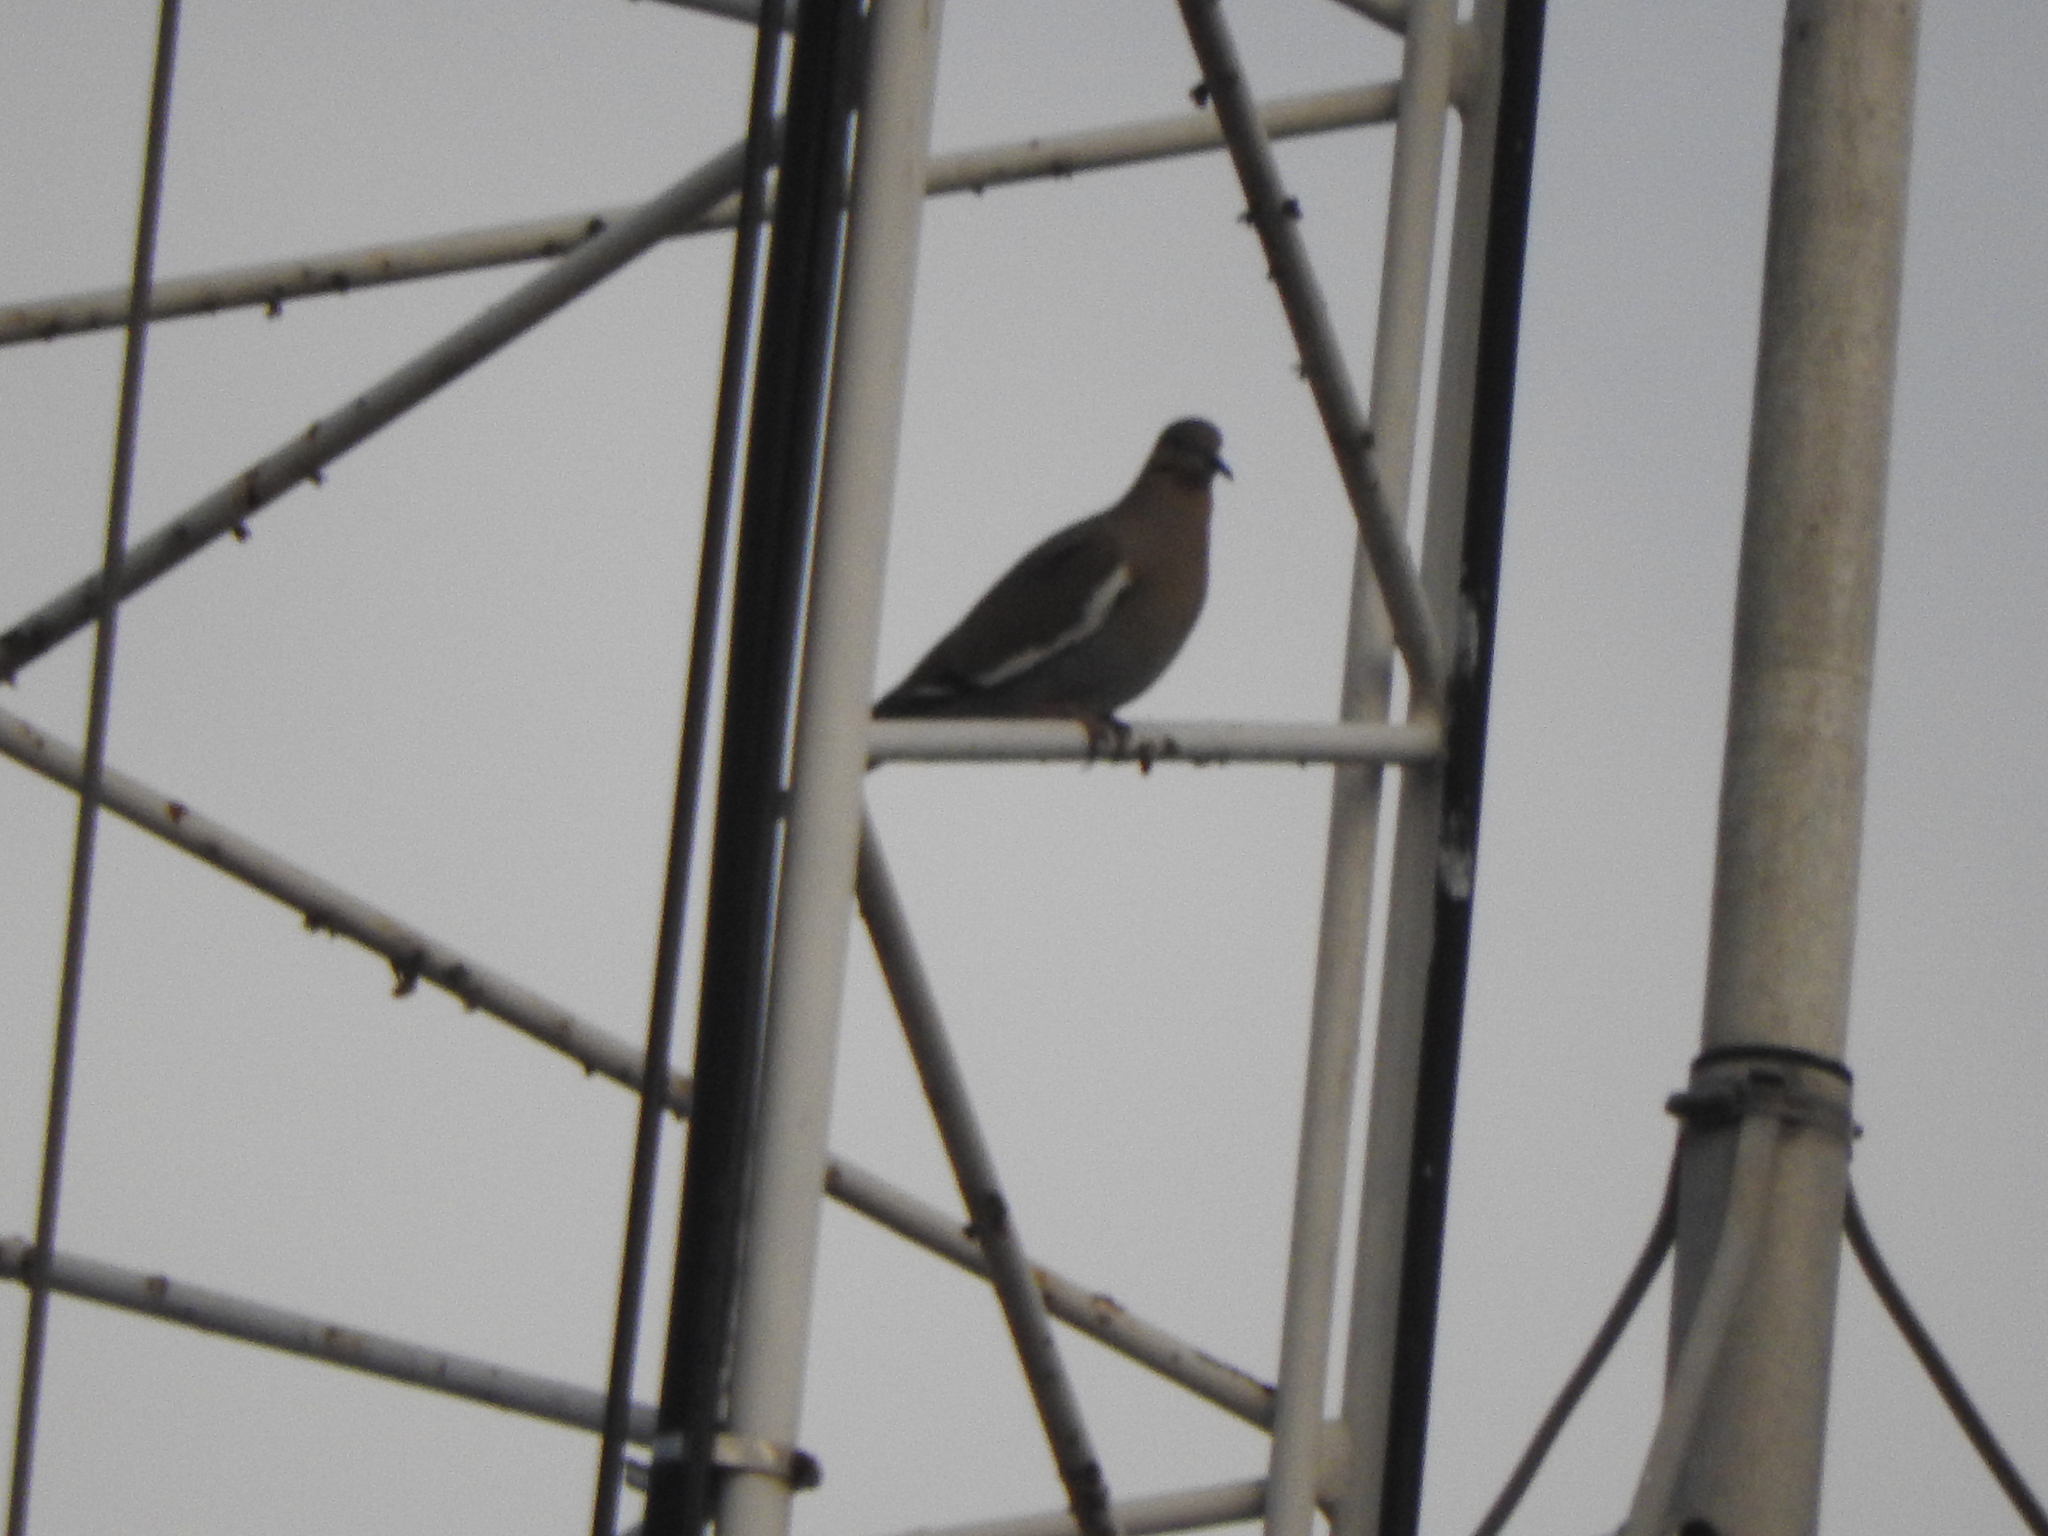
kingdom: Animalia
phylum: Chordata
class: Aves
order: Columbiformes
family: Columbidae
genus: Zenaida
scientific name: Zenaida asiatica
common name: White-winged dove
